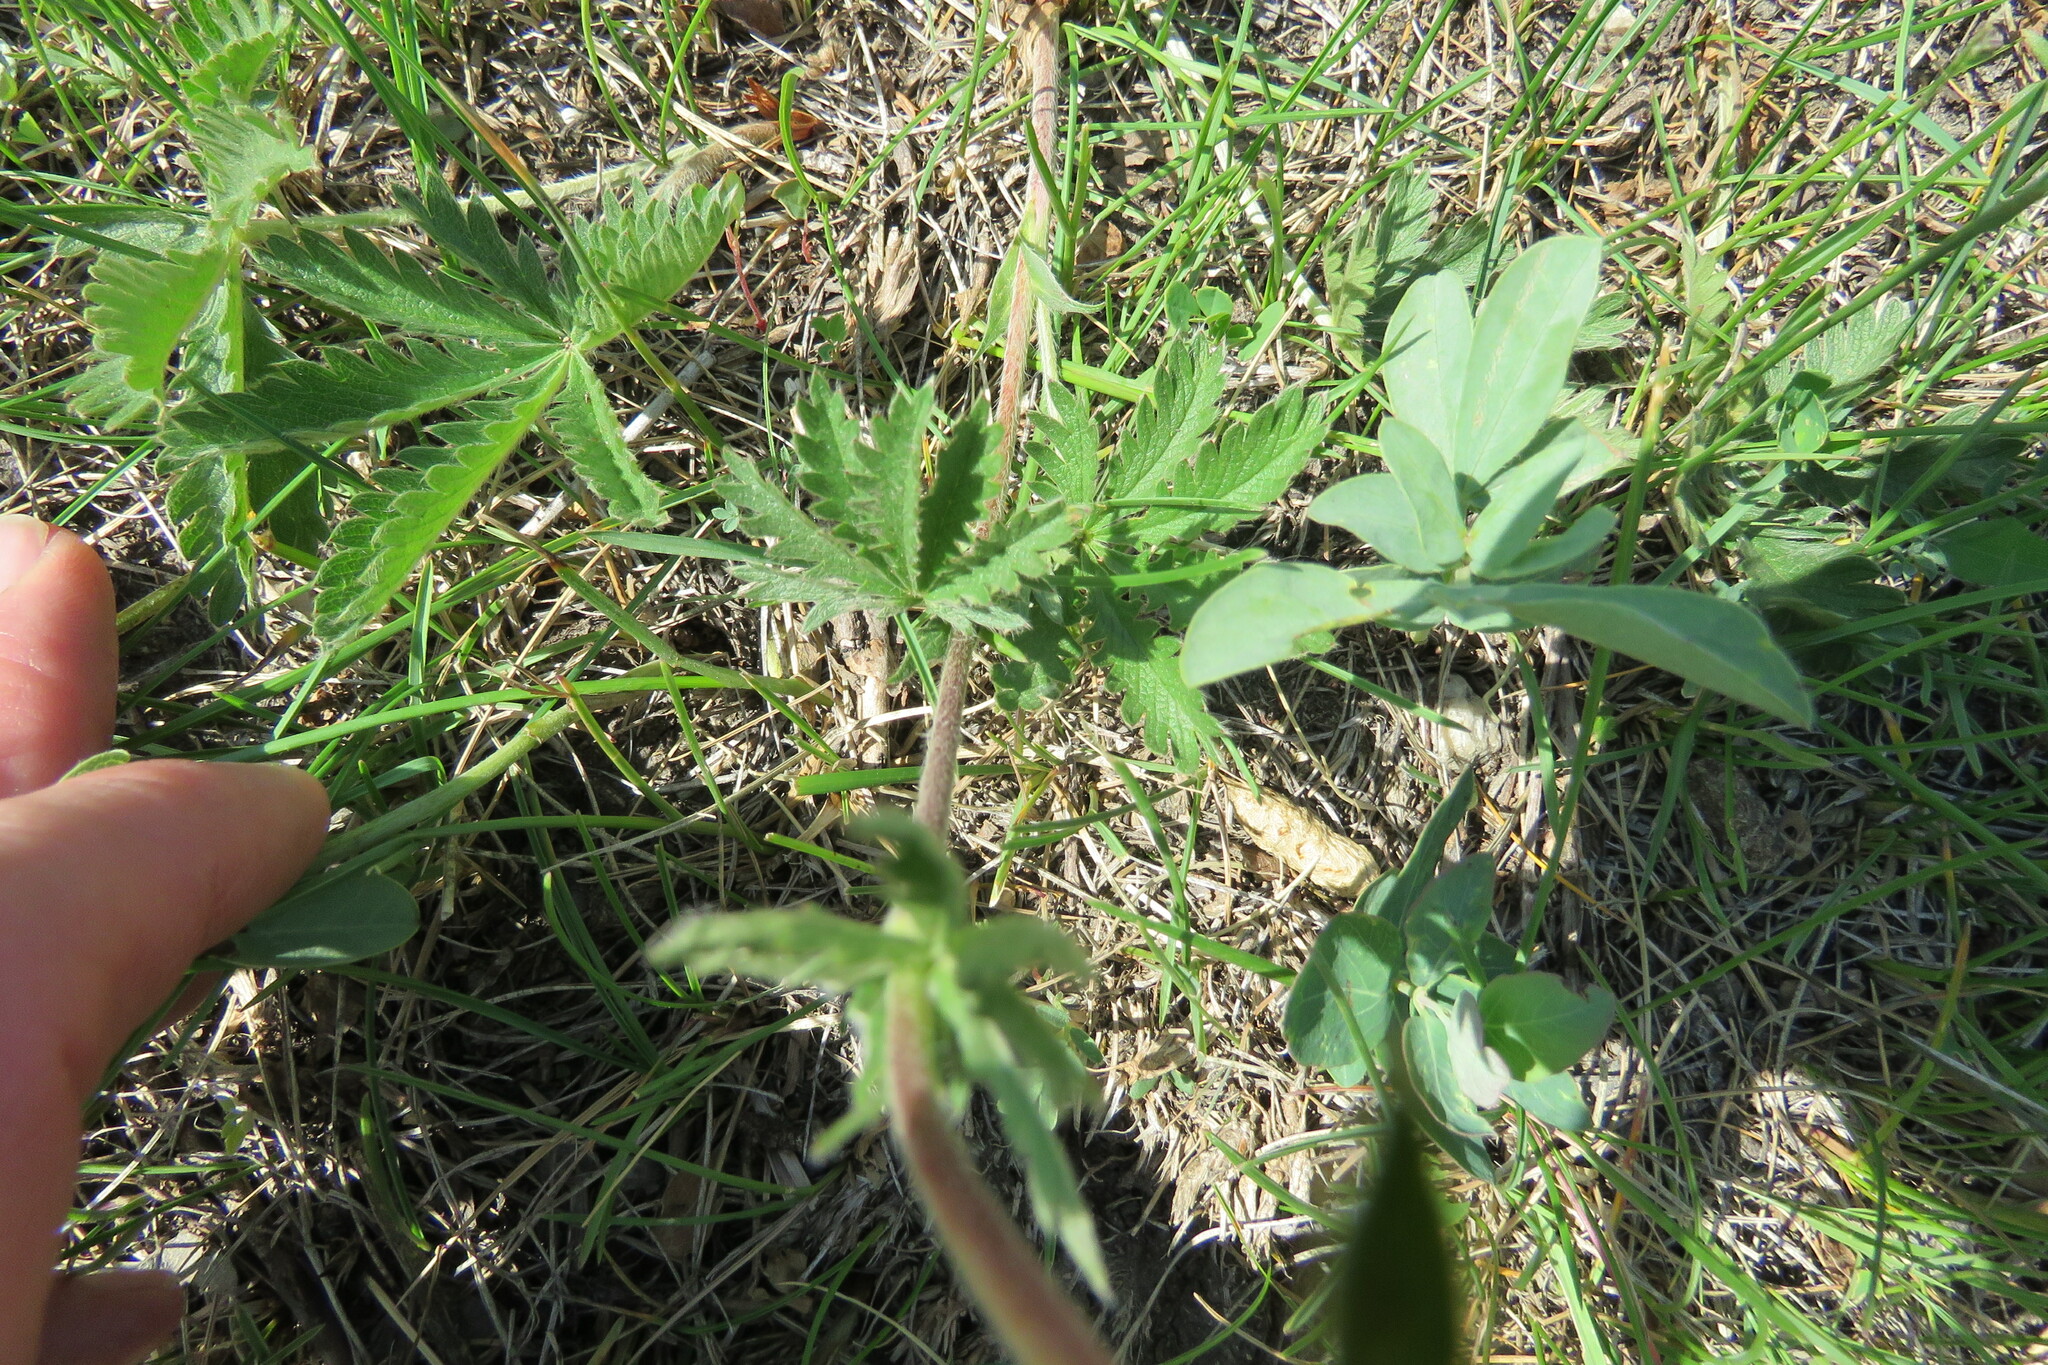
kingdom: Plantae
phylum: Tracheophyta
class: Magnoliopsida
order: Rosales
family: Rosaceae
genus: Potentilla
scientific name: Potentilla gracilis
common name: Graceful cinquefoil
